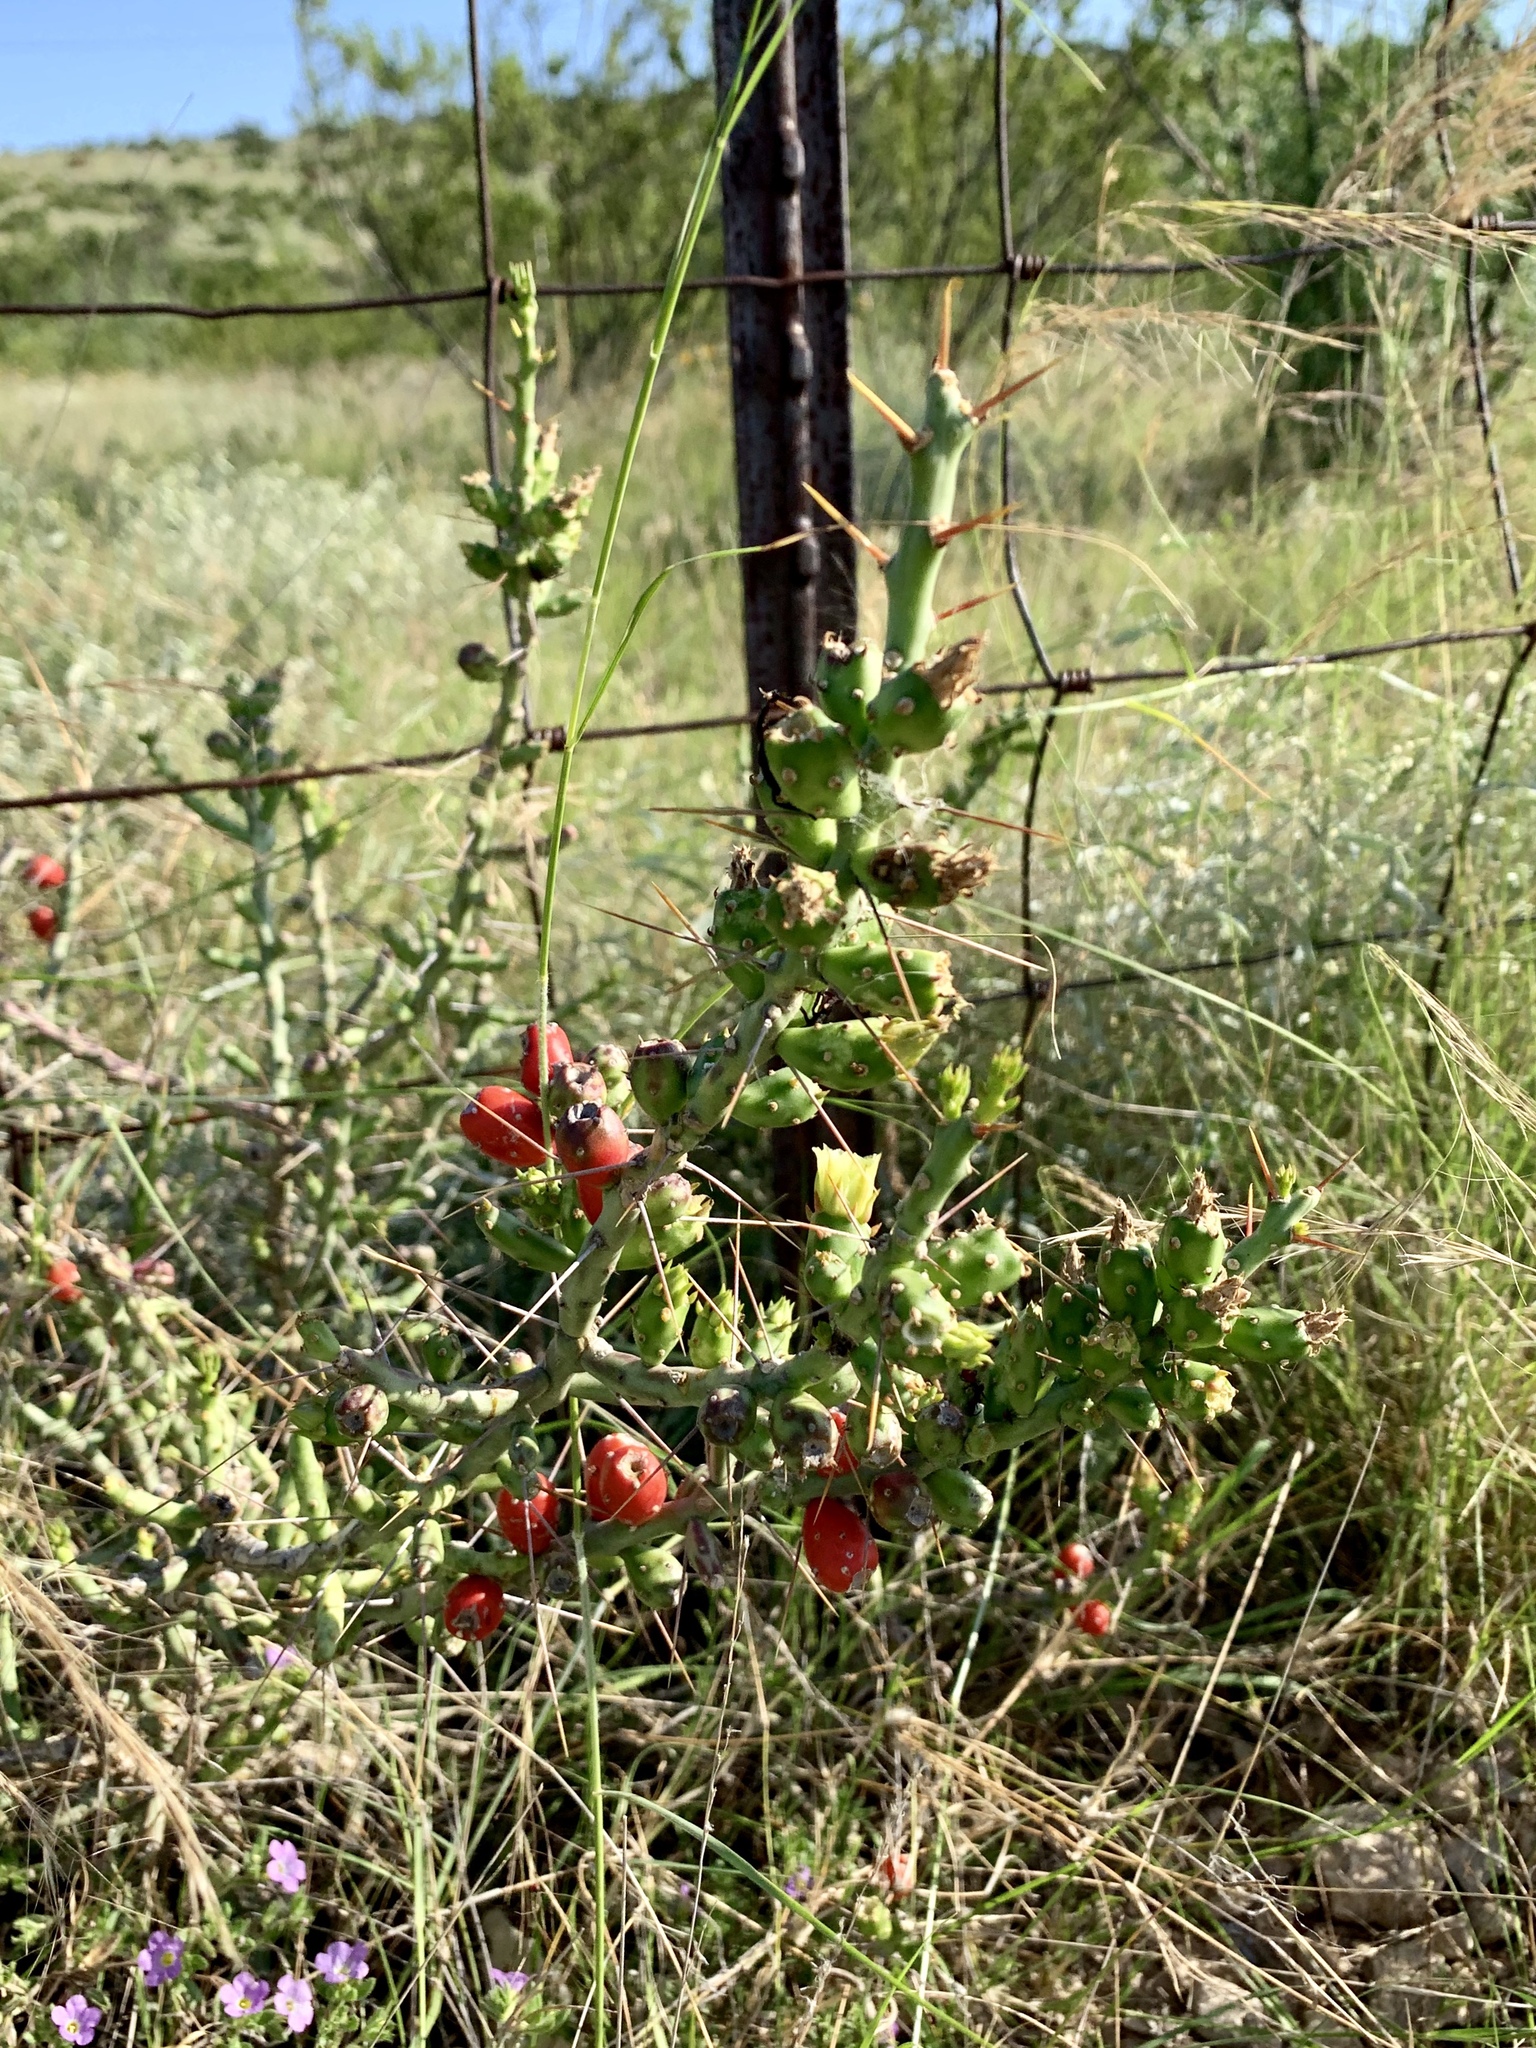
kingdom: Plantae
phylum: Tracheophyta
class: Magnoliopsida
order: Caryophyllales
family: Cactaceae
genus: Cylindropuntia
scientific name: Cylindropuntia leptocaulis
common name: Christmas cactus
